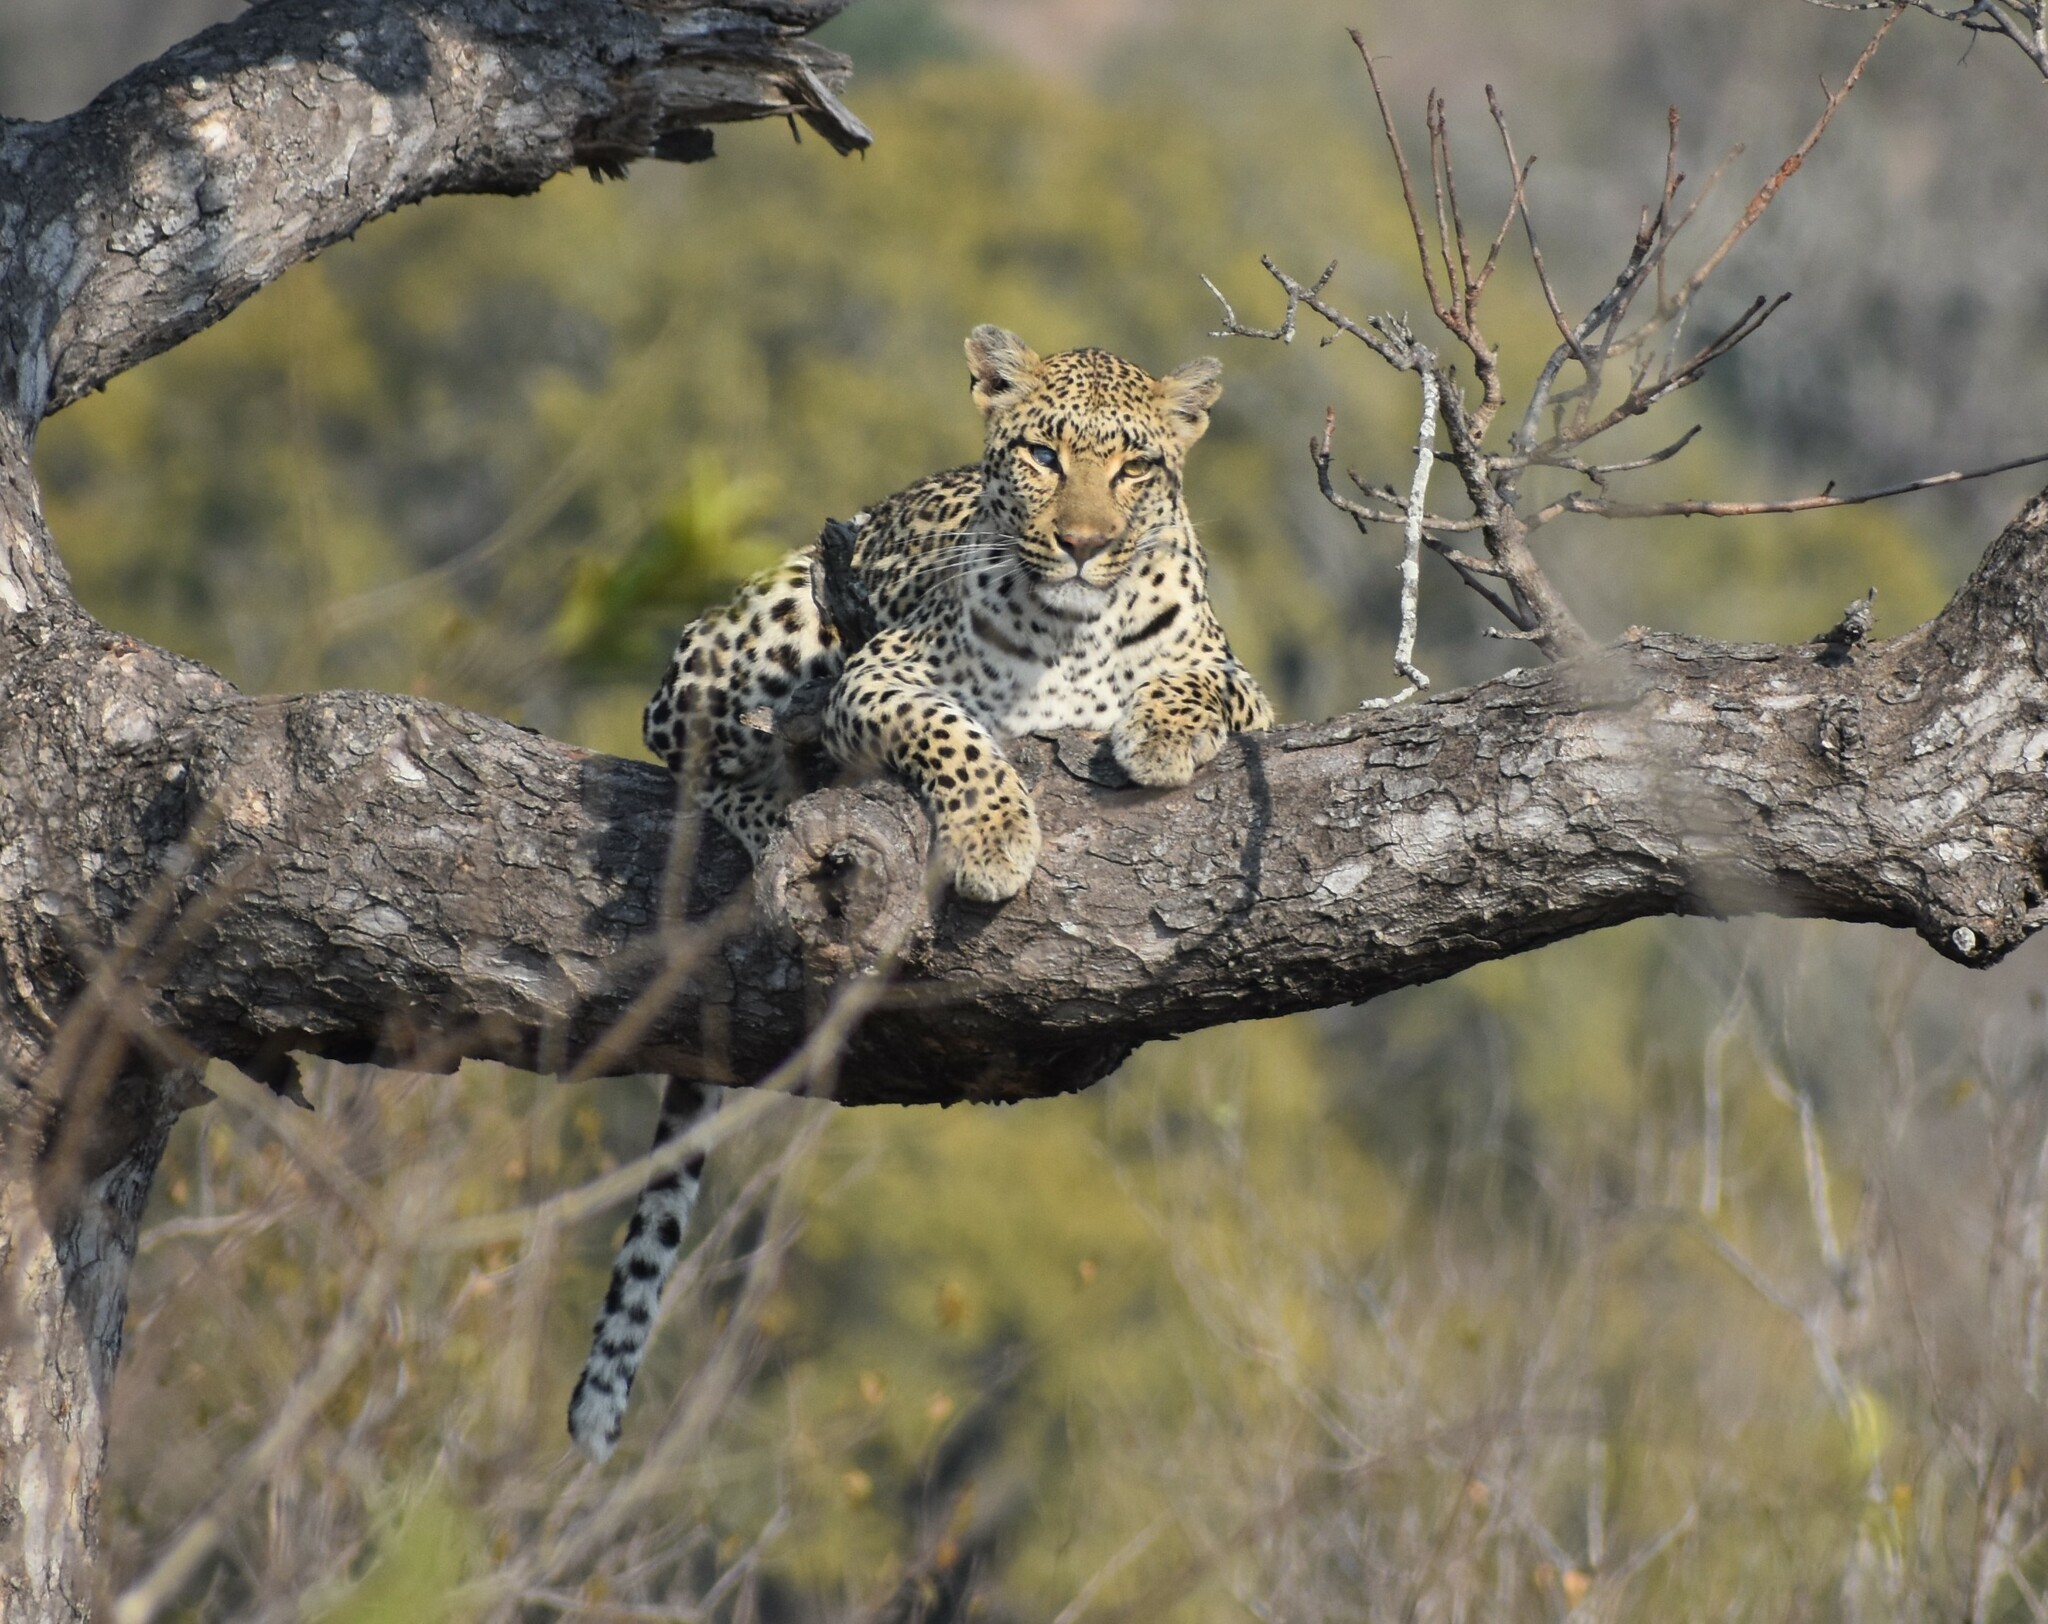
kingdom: Animalia
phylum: Chordata
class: Mammalia
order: Carnivora
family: Felidae
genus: Panthera
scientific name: Panthera pardus
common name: Leopard
